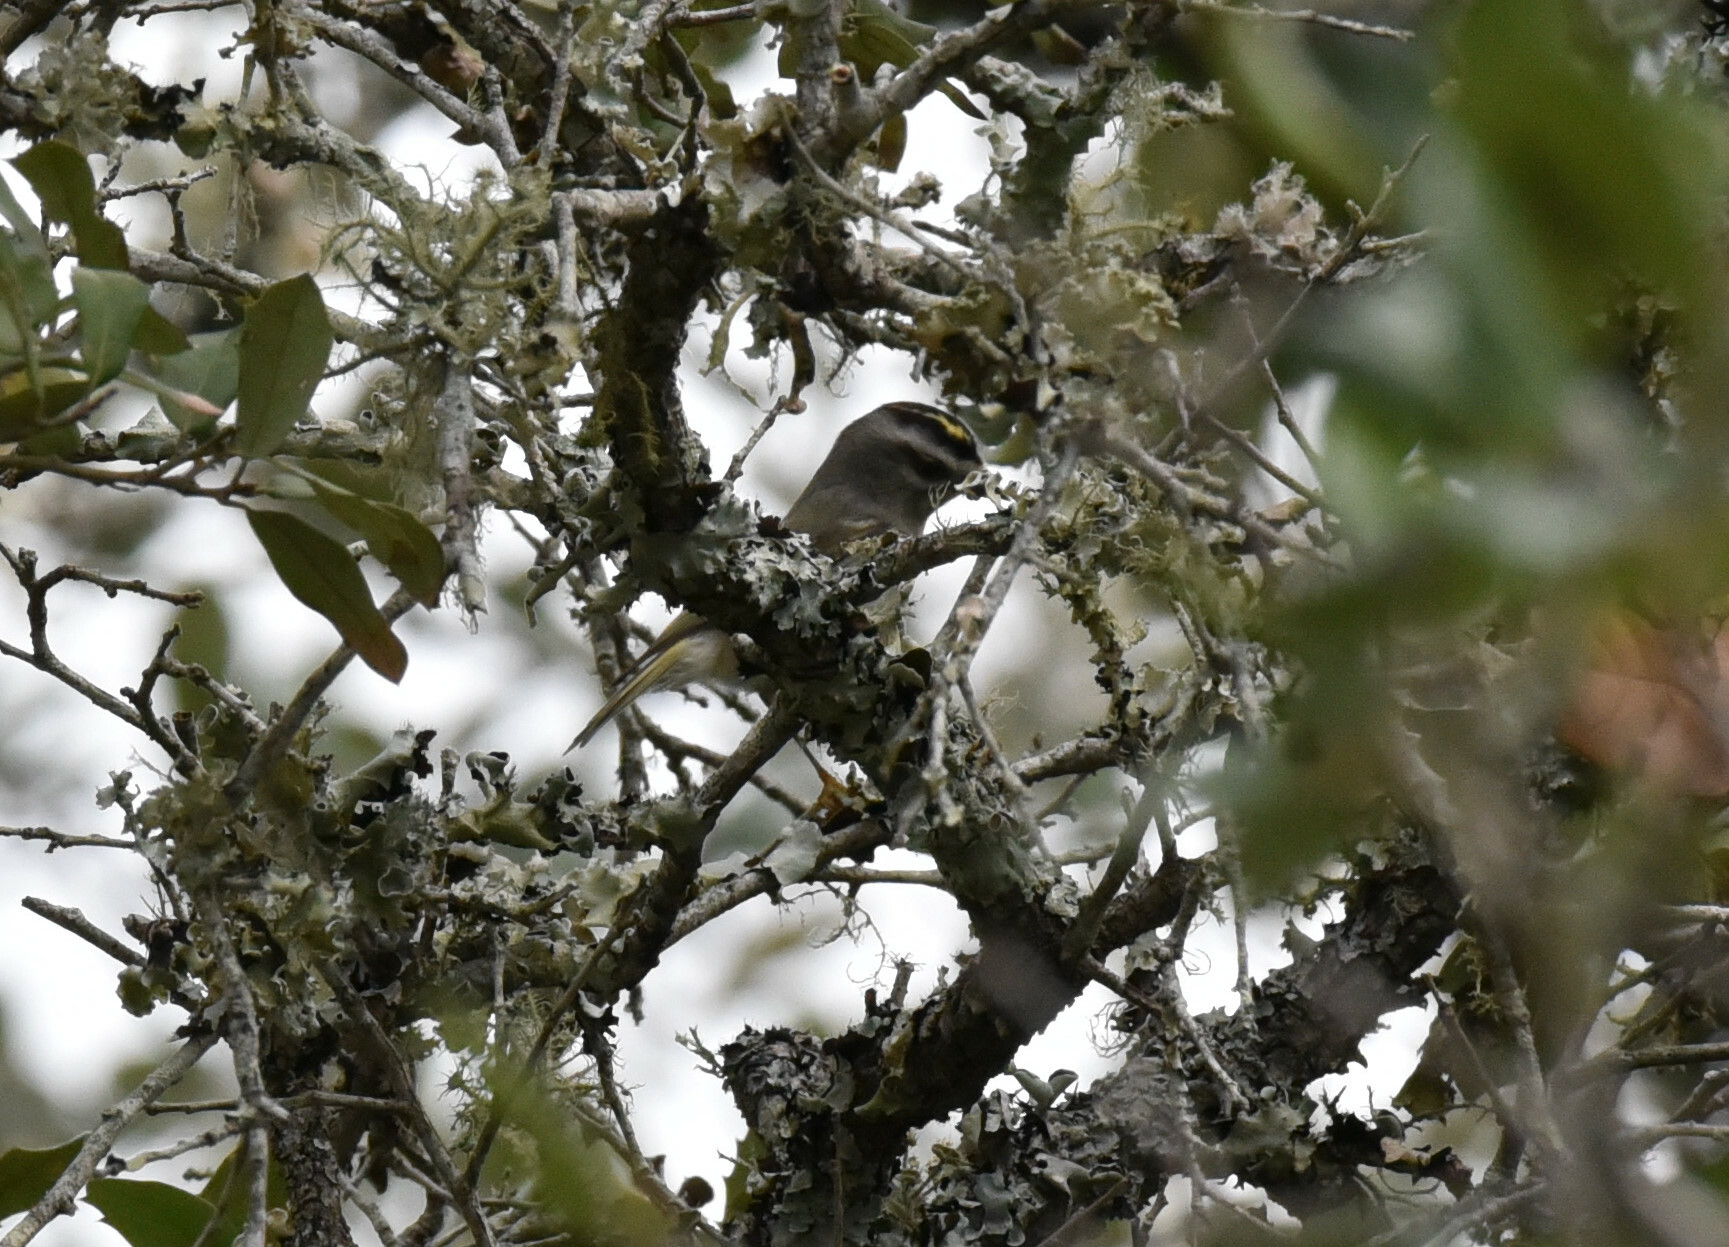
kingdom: Animalia
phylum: Chordata
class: Aves
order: Passeriformes
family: Regulidae
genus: Regulus
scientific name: Regulus satrapa
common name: Golden-crowned kinglet
